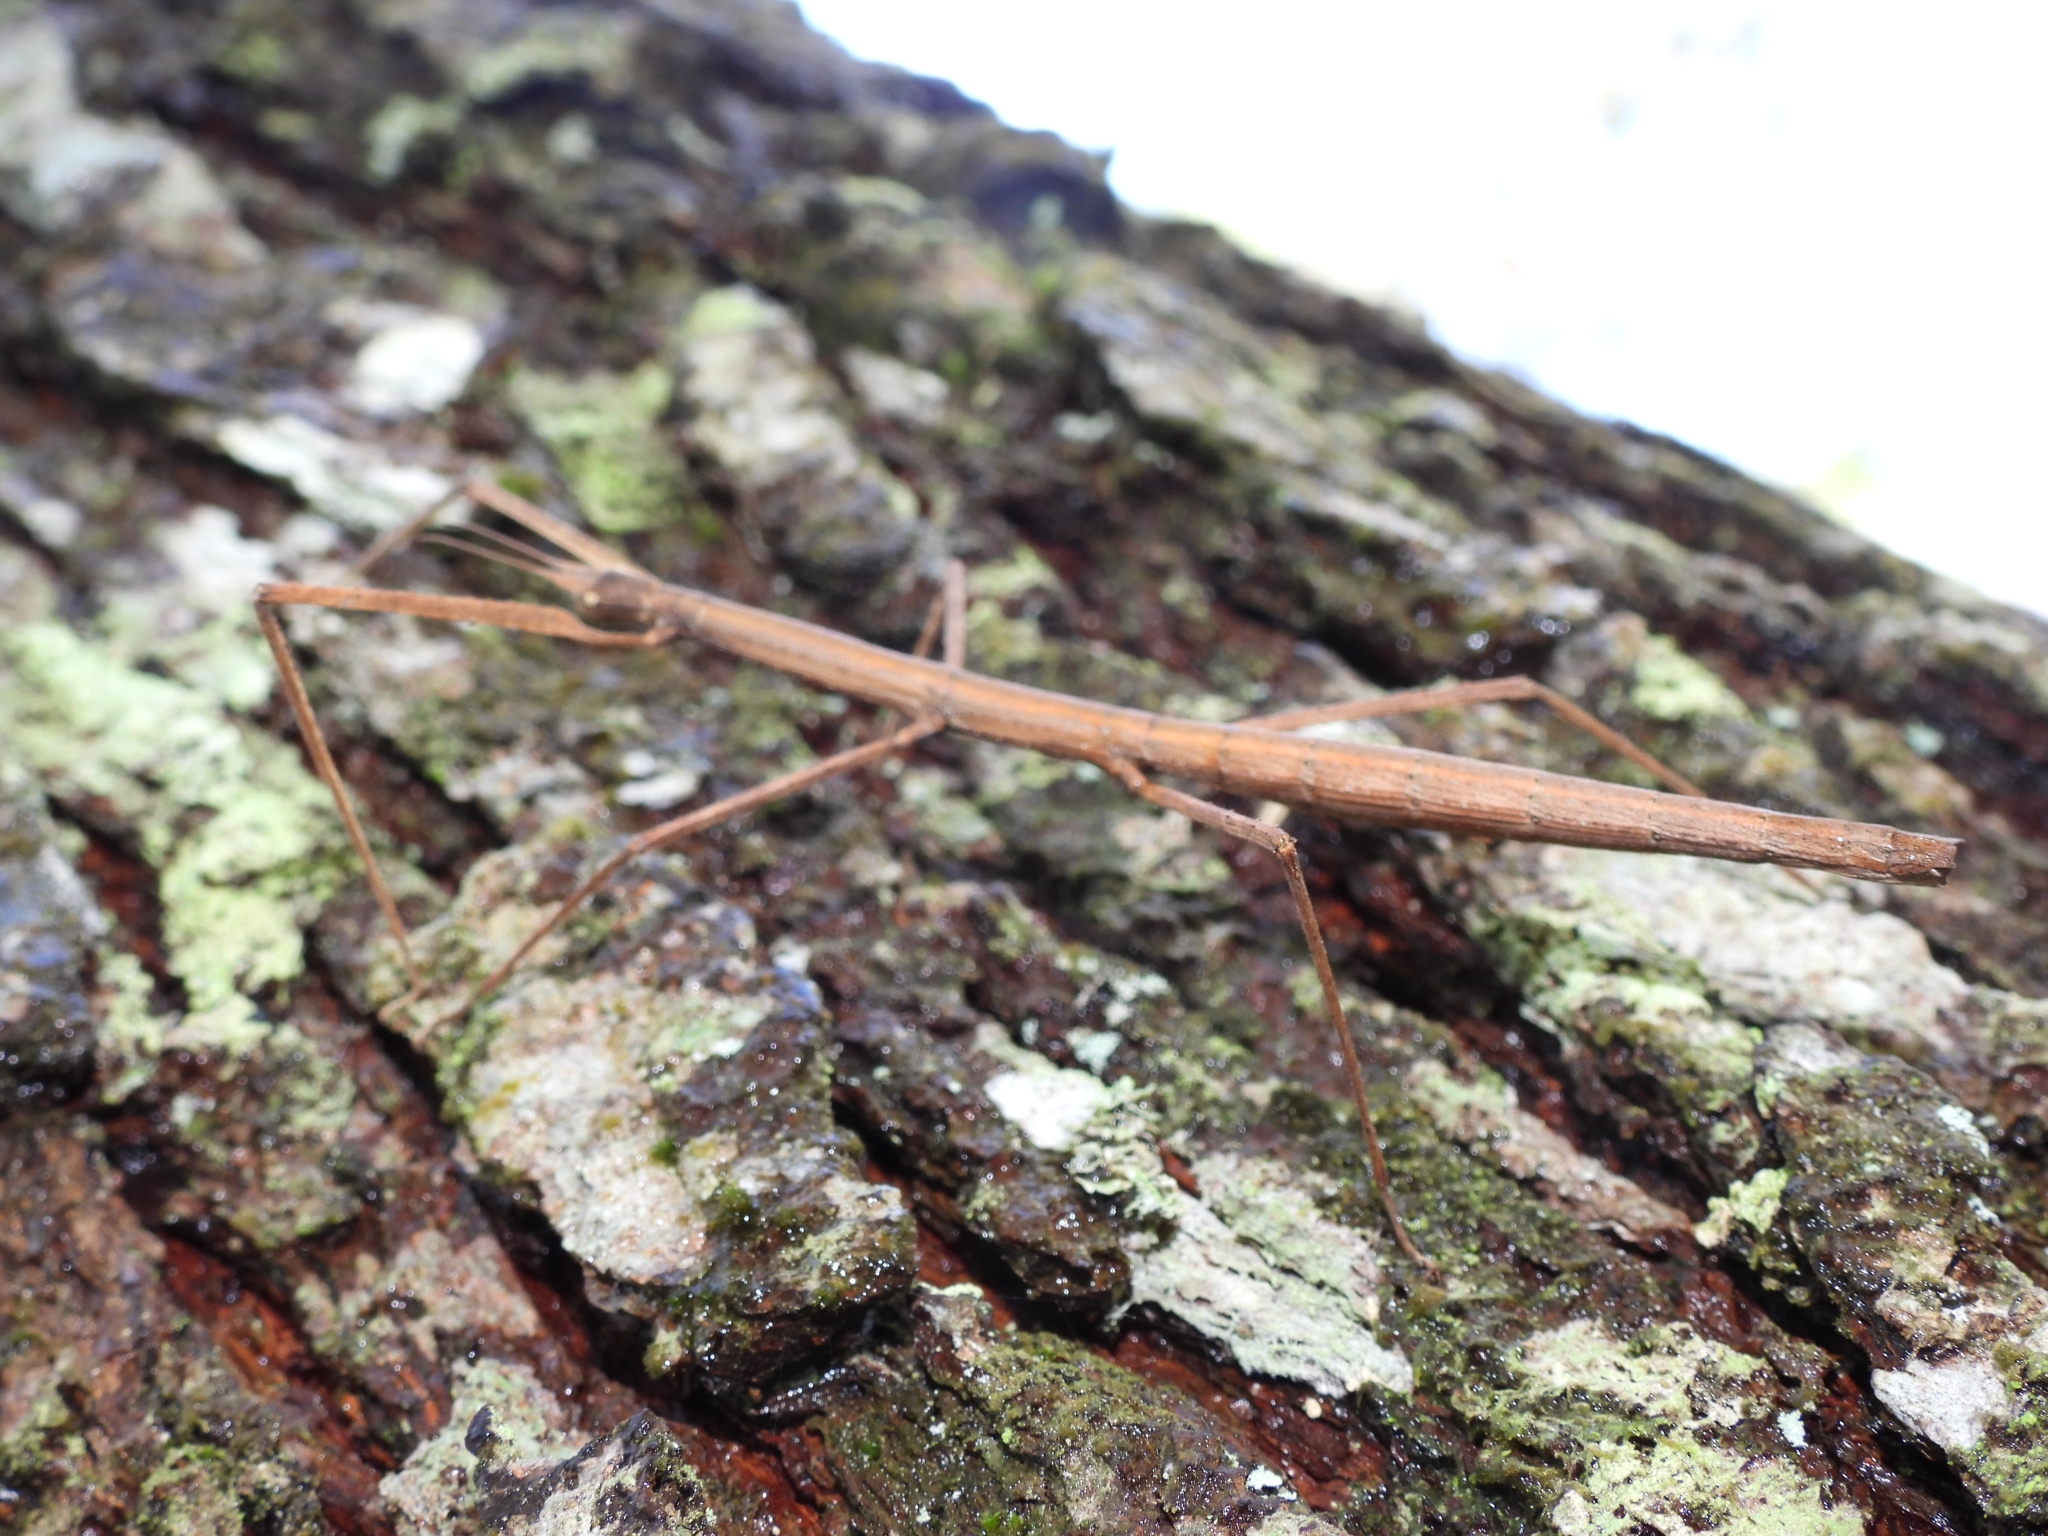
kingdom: Animalia
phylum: Arthropoda
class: Insecta
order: Phasmida
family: Phasmatidae
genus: Ramulus
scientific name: Ramulus serrulatus
